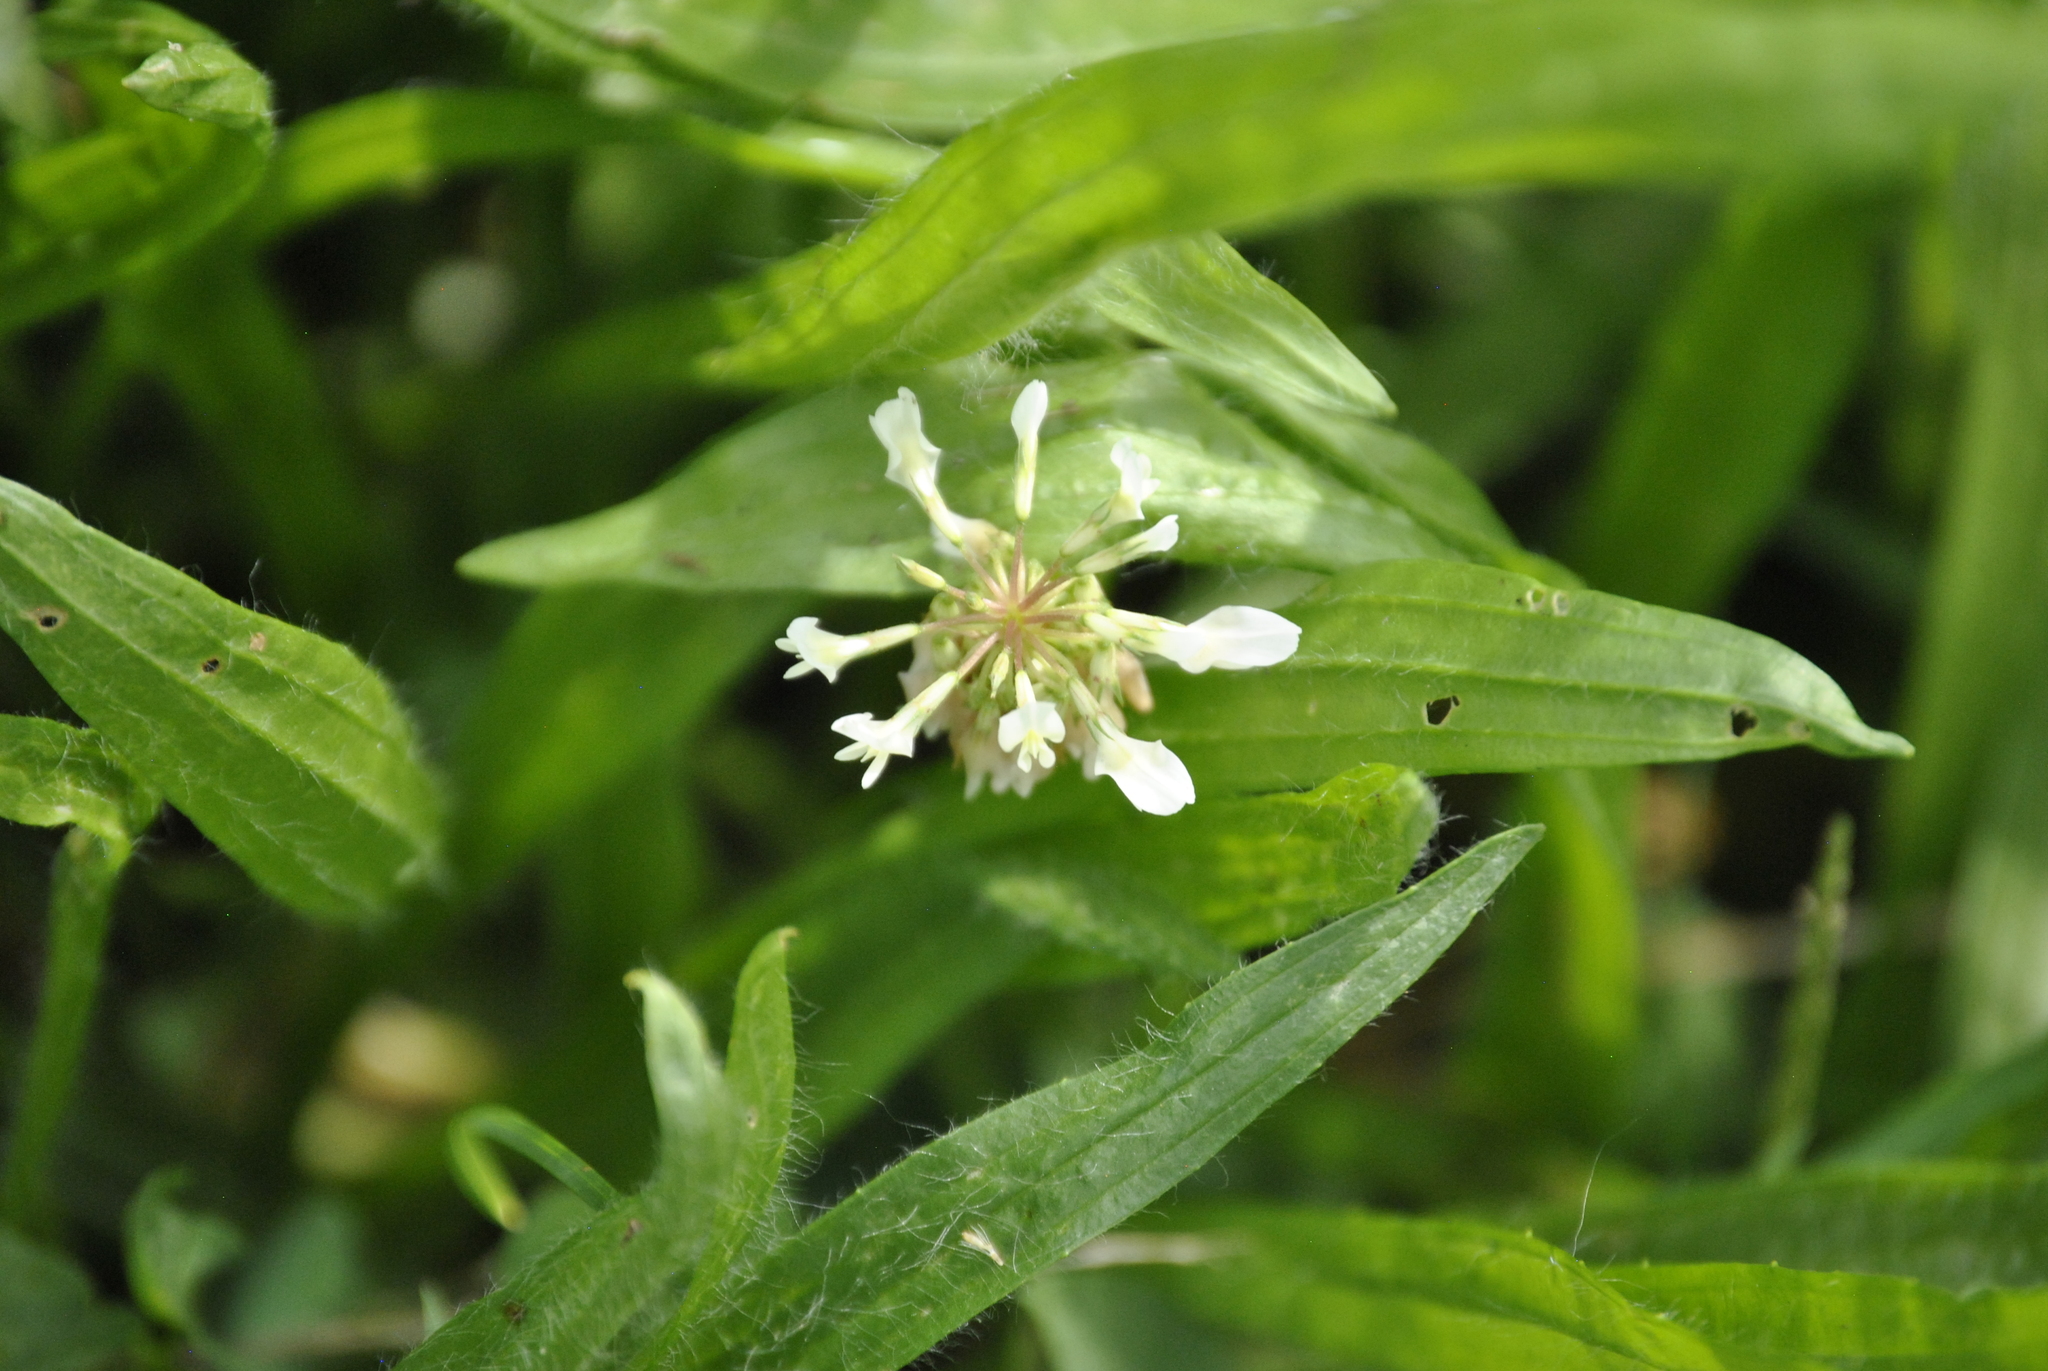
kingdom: Plantae
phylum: Tracheophyta
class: Magnoliopsida
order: Fabales
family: Fabaceae
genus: Trifolium
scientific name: Trifolium repens
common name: White clover
